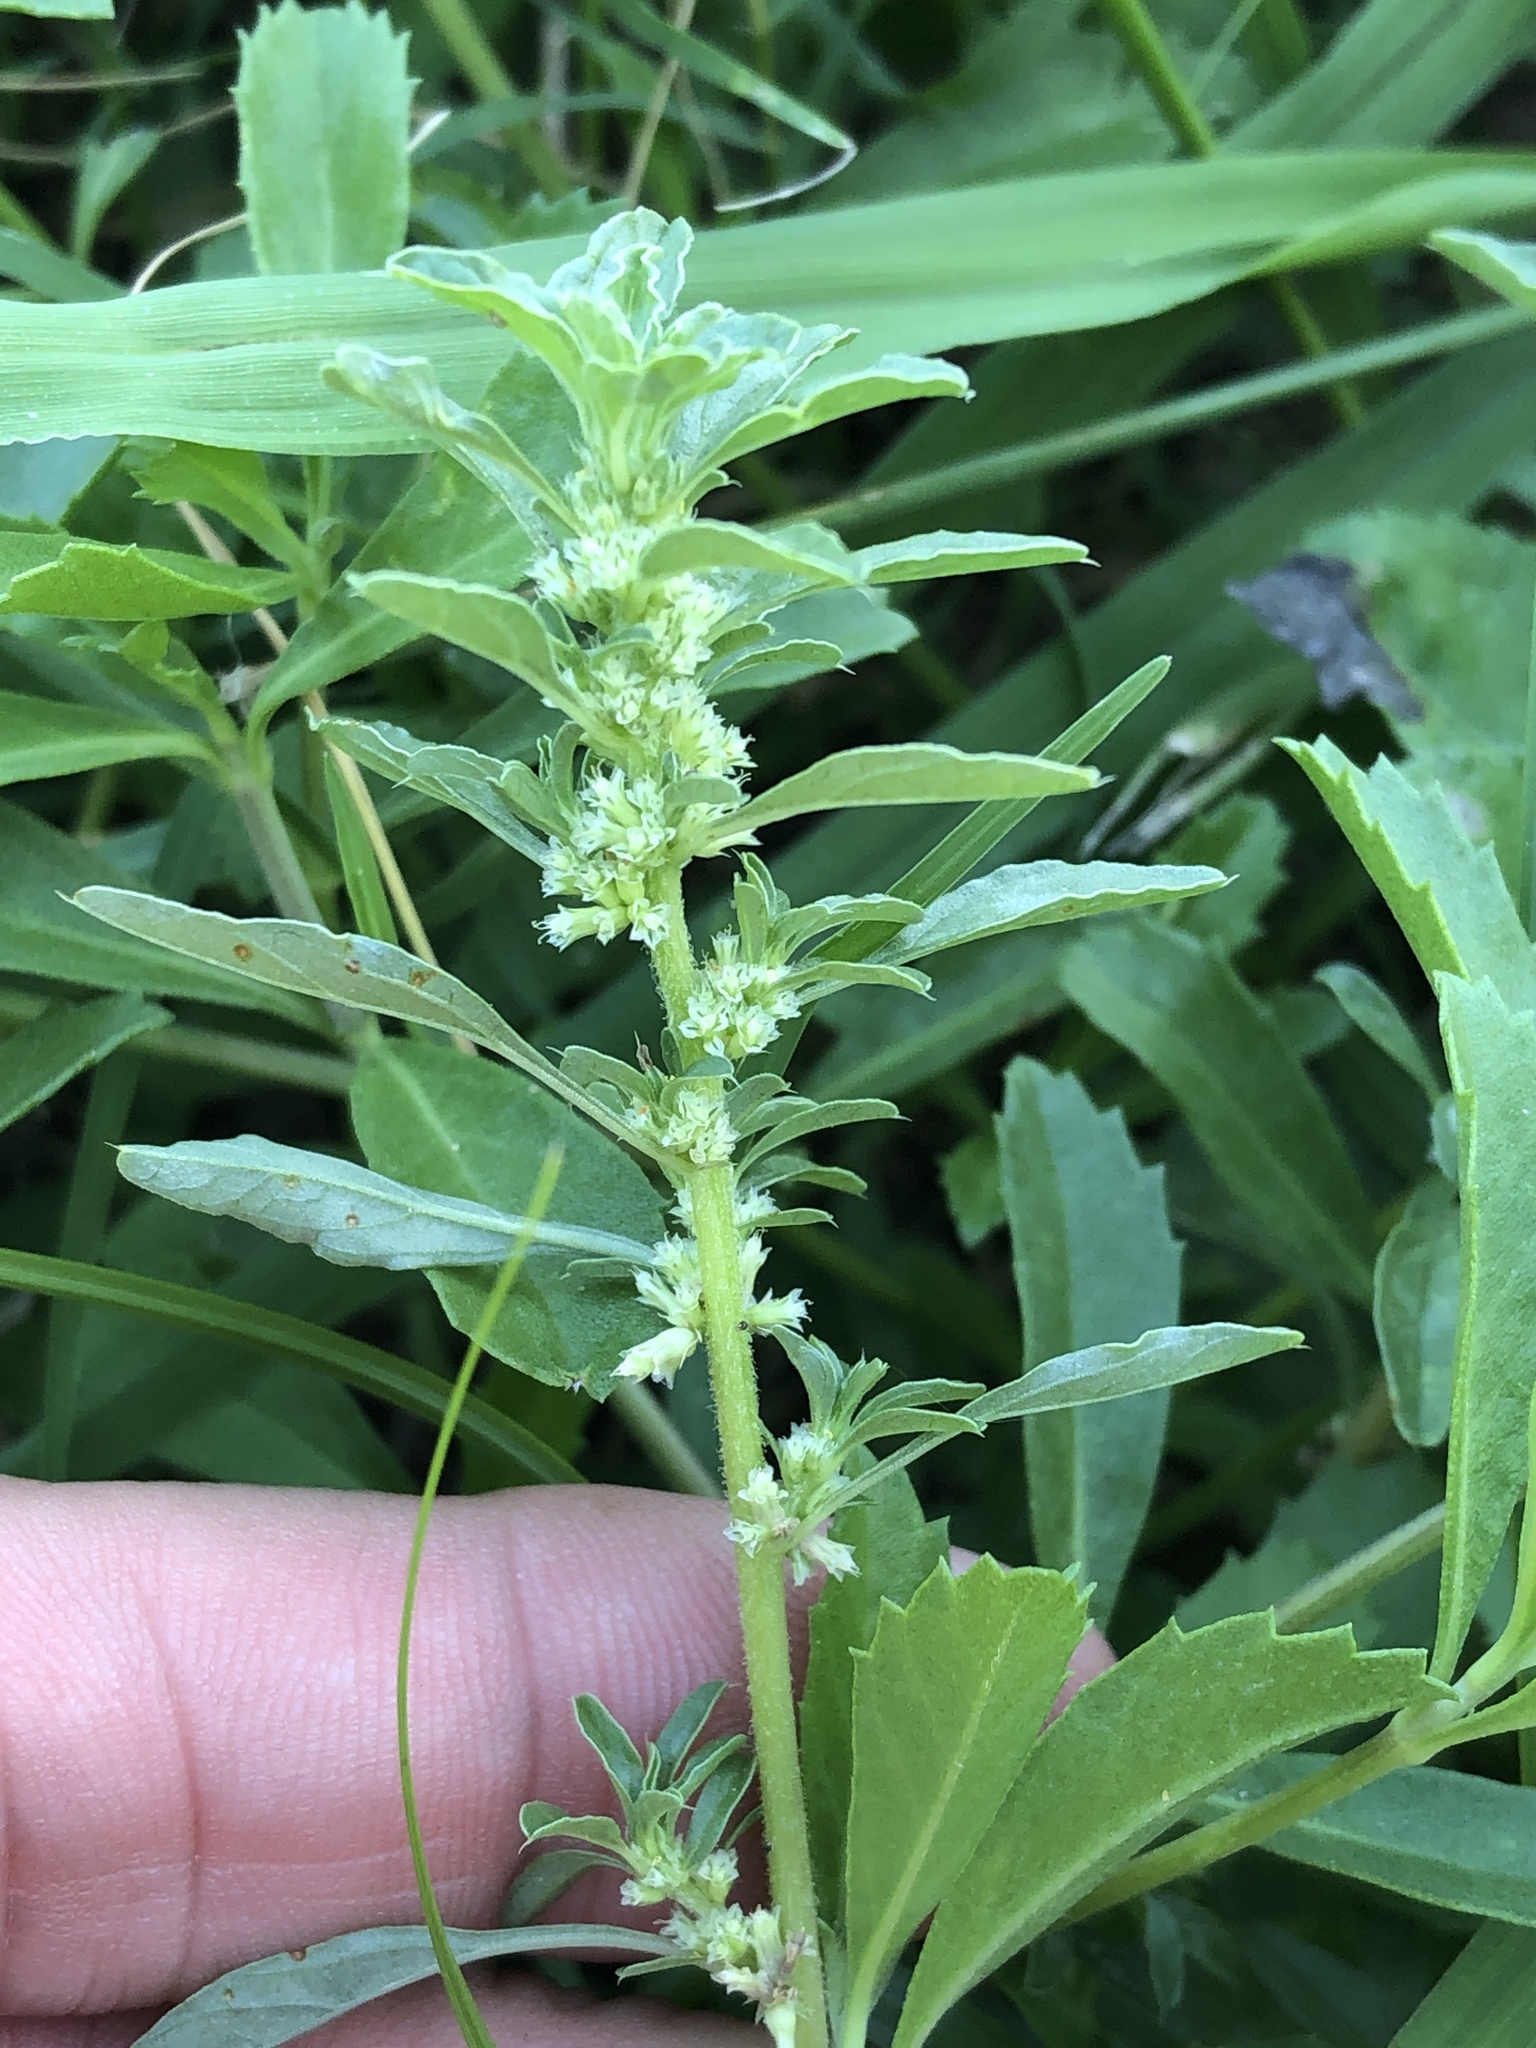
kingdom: Plantae
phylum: Tracheophyta
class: Magnoliopsida
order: Caryophyllales
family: Amaranthaceae
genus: Amaranthus
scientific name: Amaranthus polygonoides
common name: Tropical amaranth
